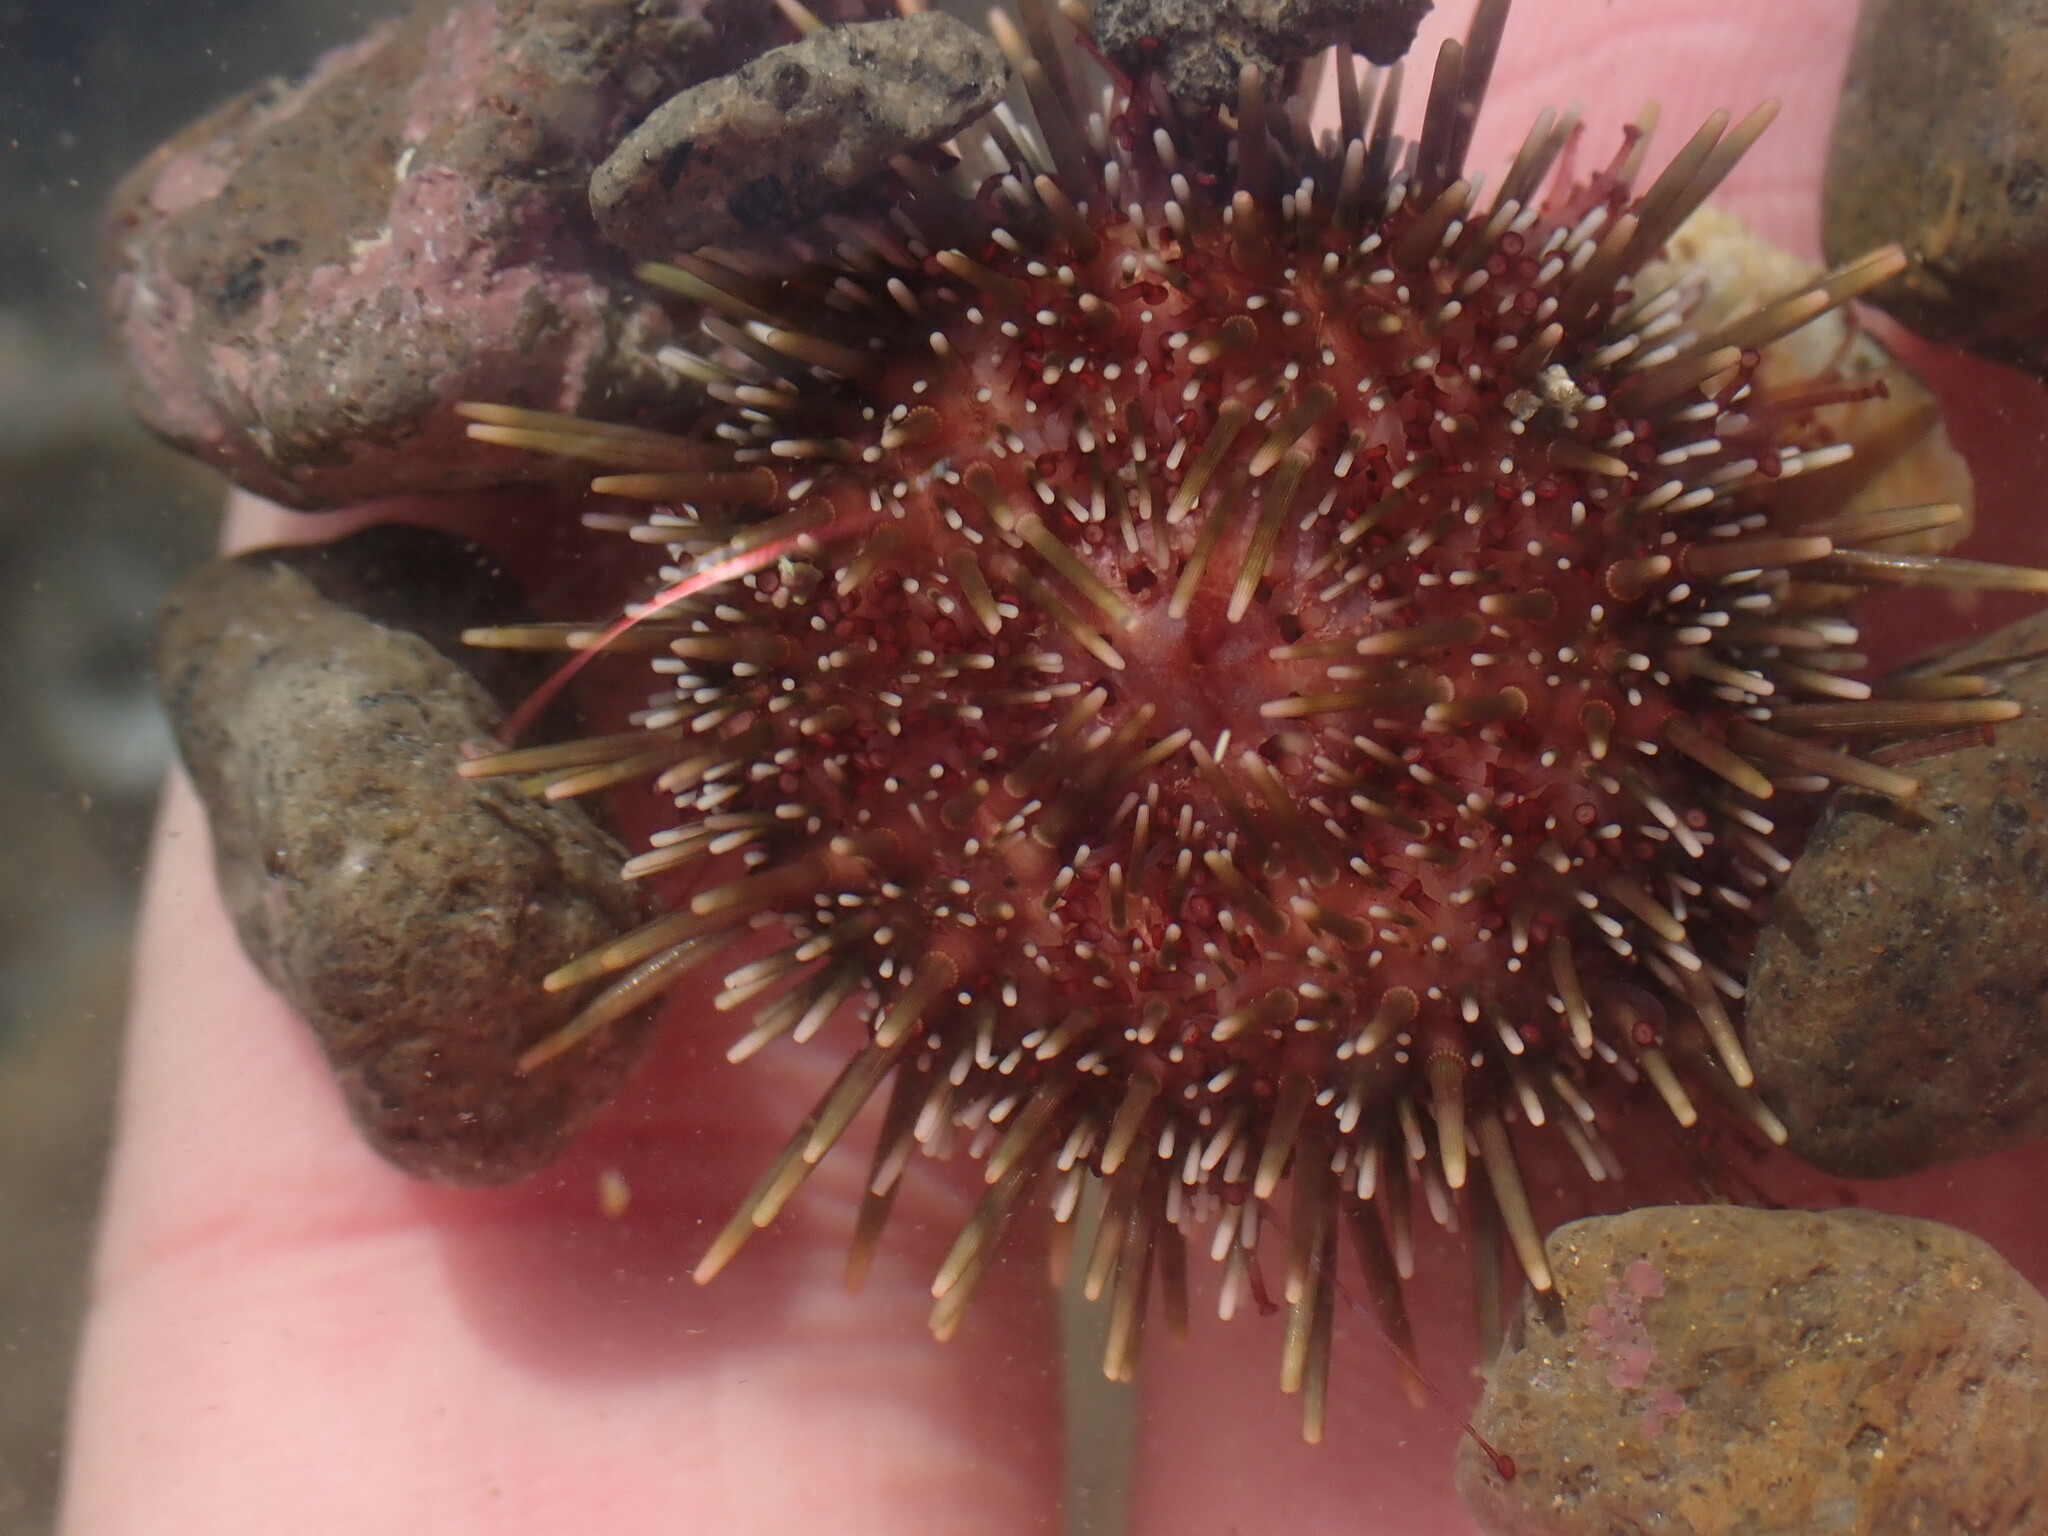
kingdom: Animalia
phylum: Echinodermata
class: Echinoidea
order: Camarodonta
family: Echinometridae
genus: Evechinus
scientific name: Evechinus chloroticus
